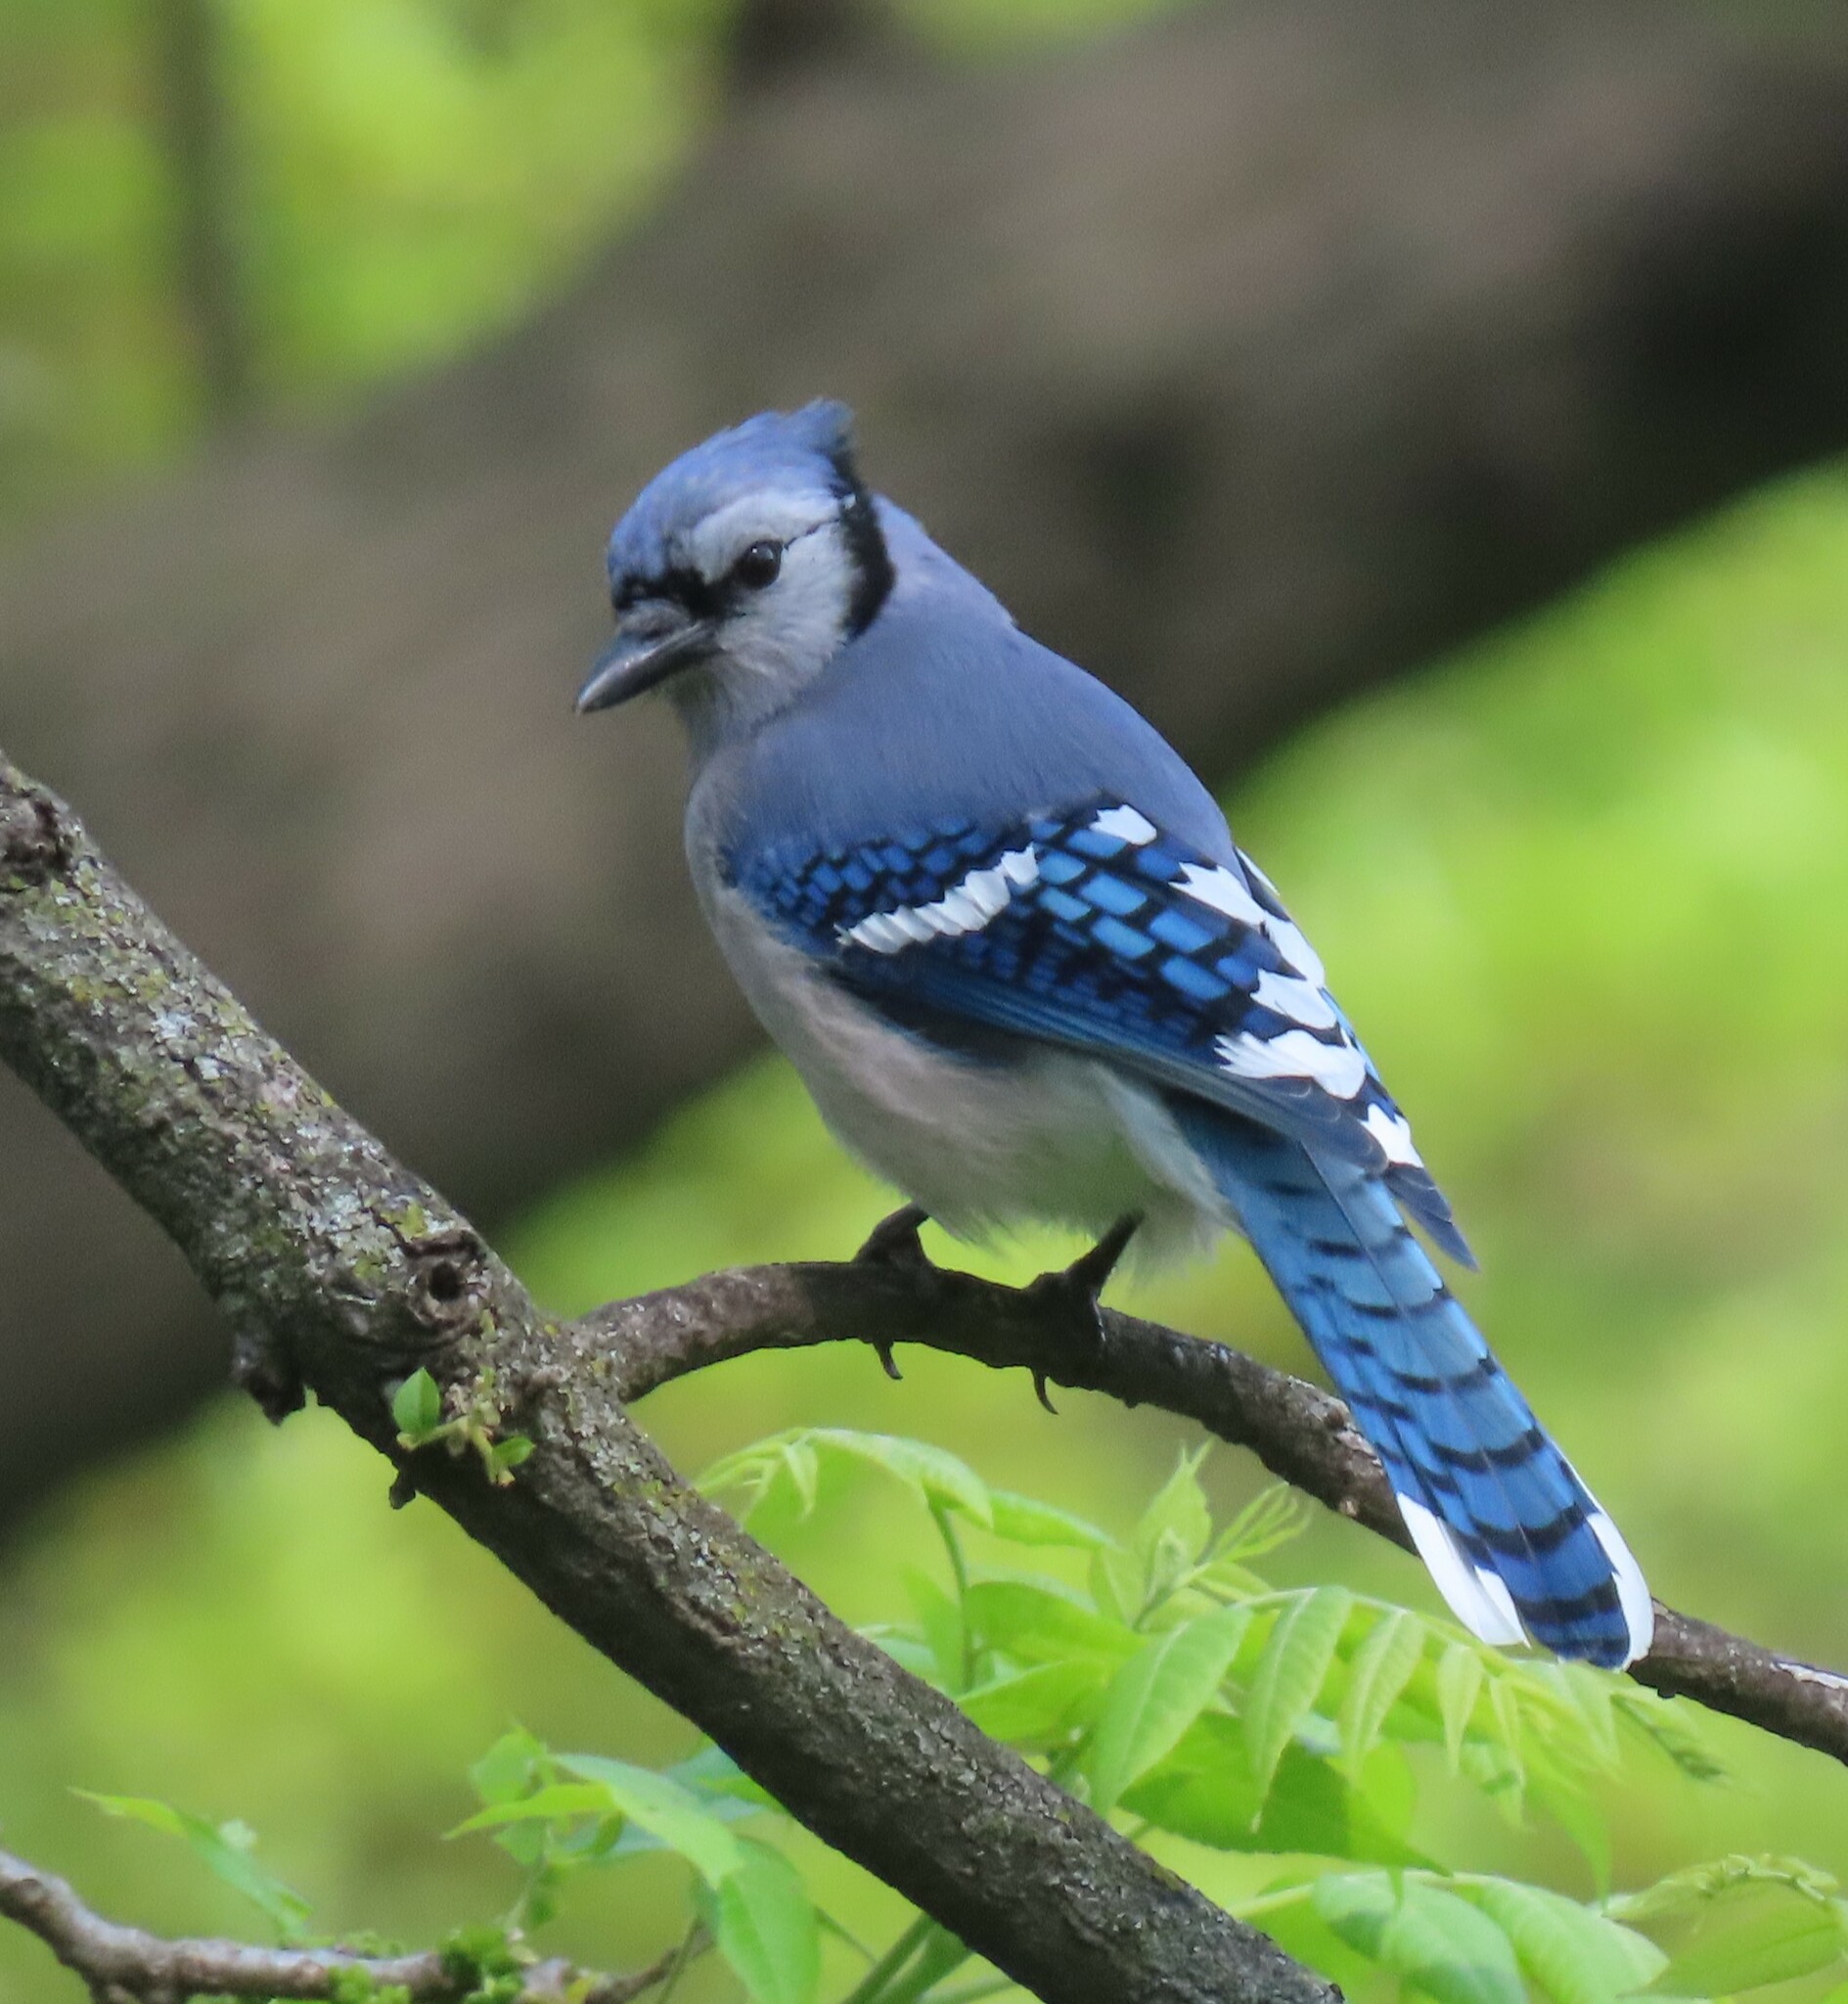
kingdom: Animalia
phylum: Chordata
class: Aves
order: Passeriformes
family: Corvidae
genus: Cyanocitta
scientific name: Cyanocitta cristata
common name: Blue jay
